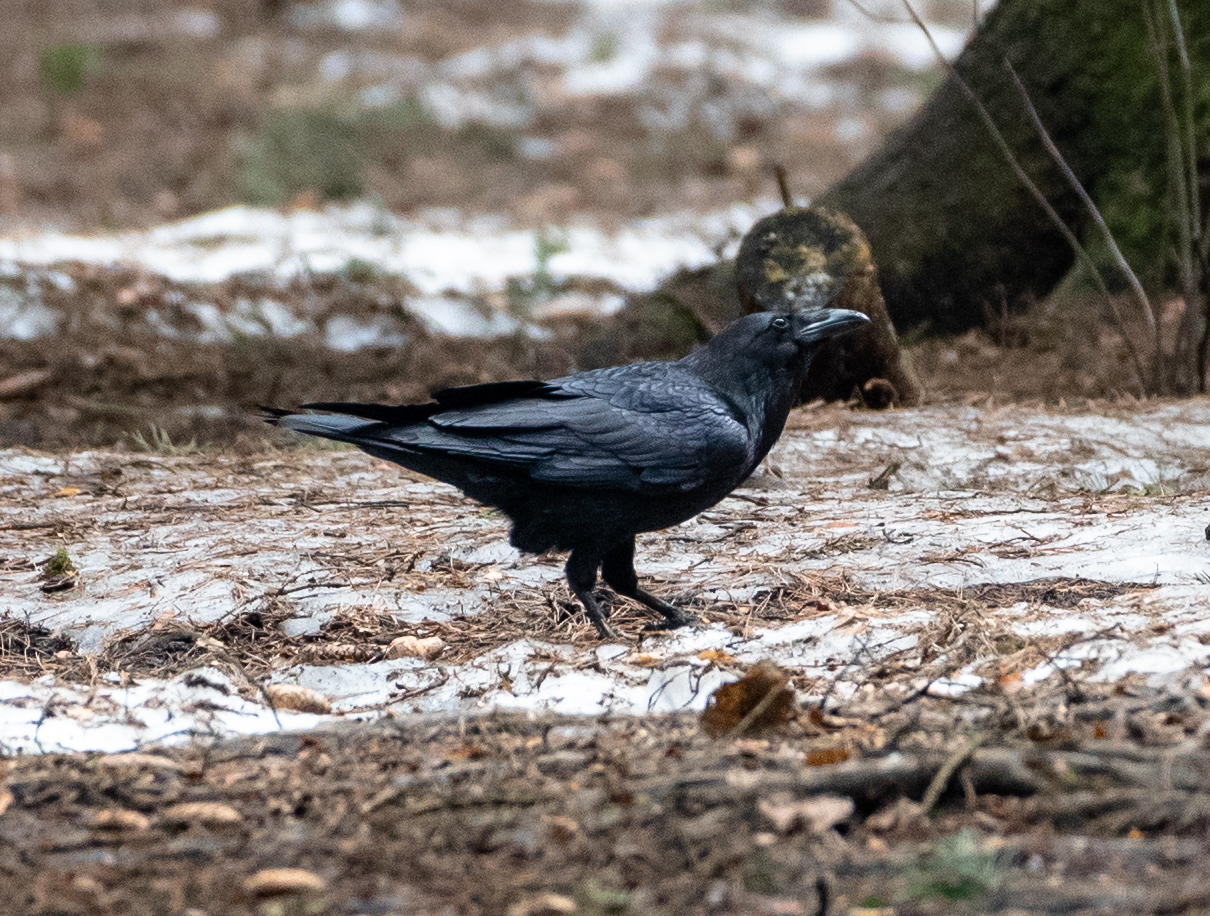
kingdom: Animalia
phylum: Chordata
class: Aves
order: Passeriformes
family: Corvidae
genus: Corvus
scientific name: Corvus corax
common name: Common raven
